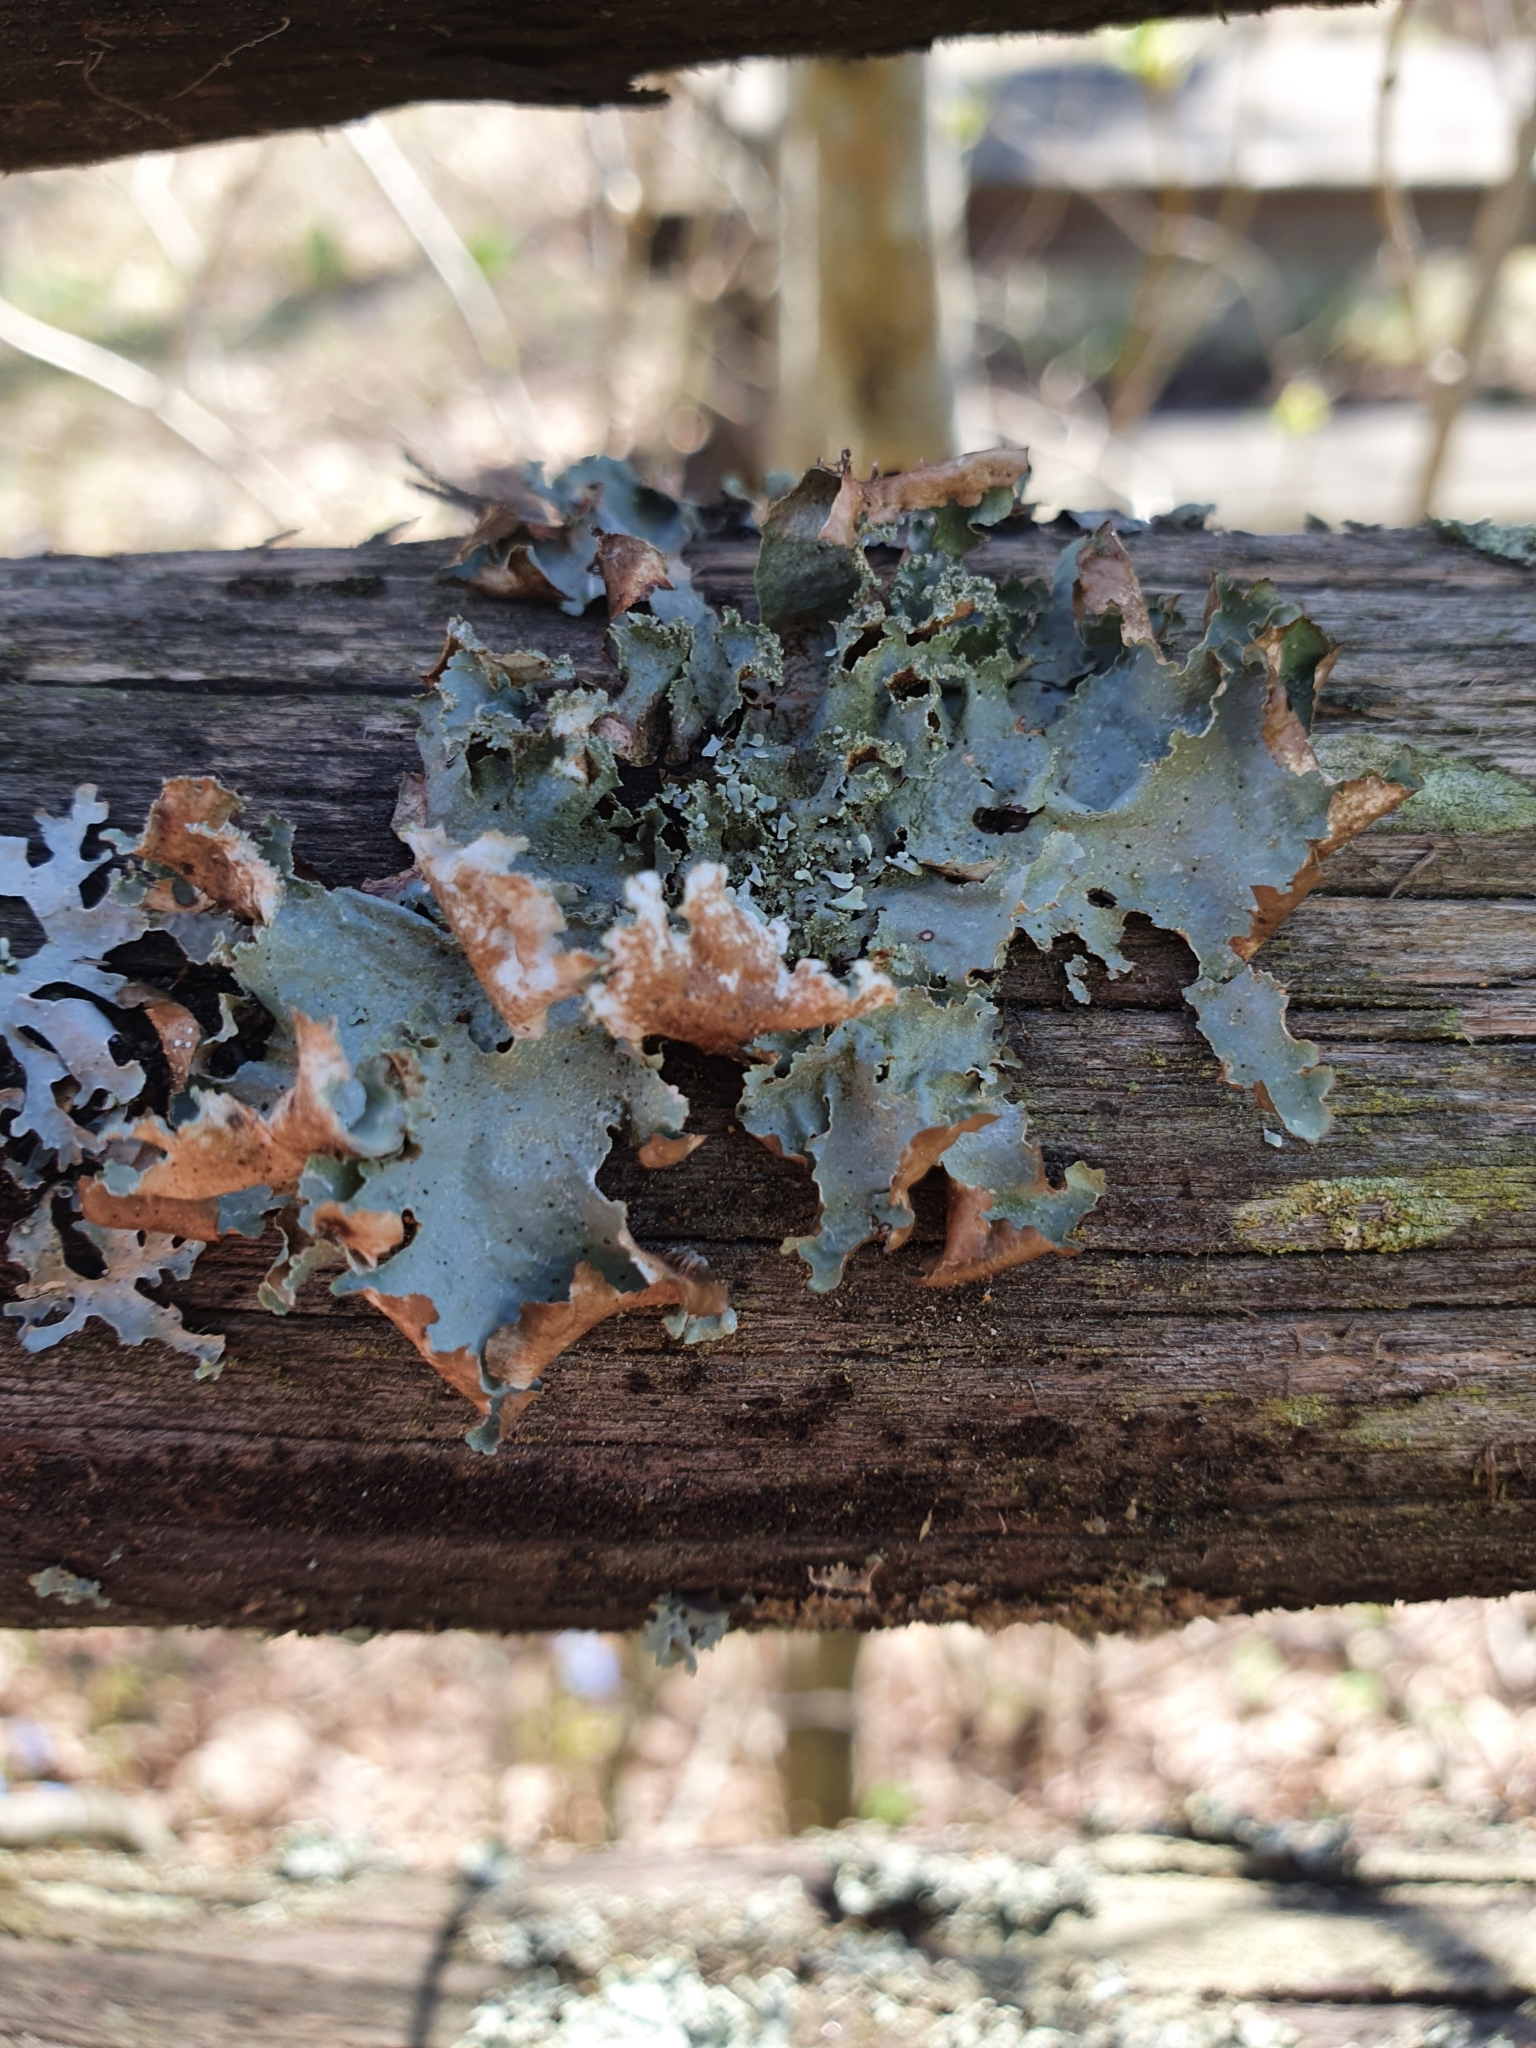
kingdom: Fungi
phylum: Ascomycota
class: Lecanoromycetes
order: Lecanorales
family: Parmeliaceae
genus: Platismatia
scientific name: Platismatia glauca
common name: Varied rag lichen
